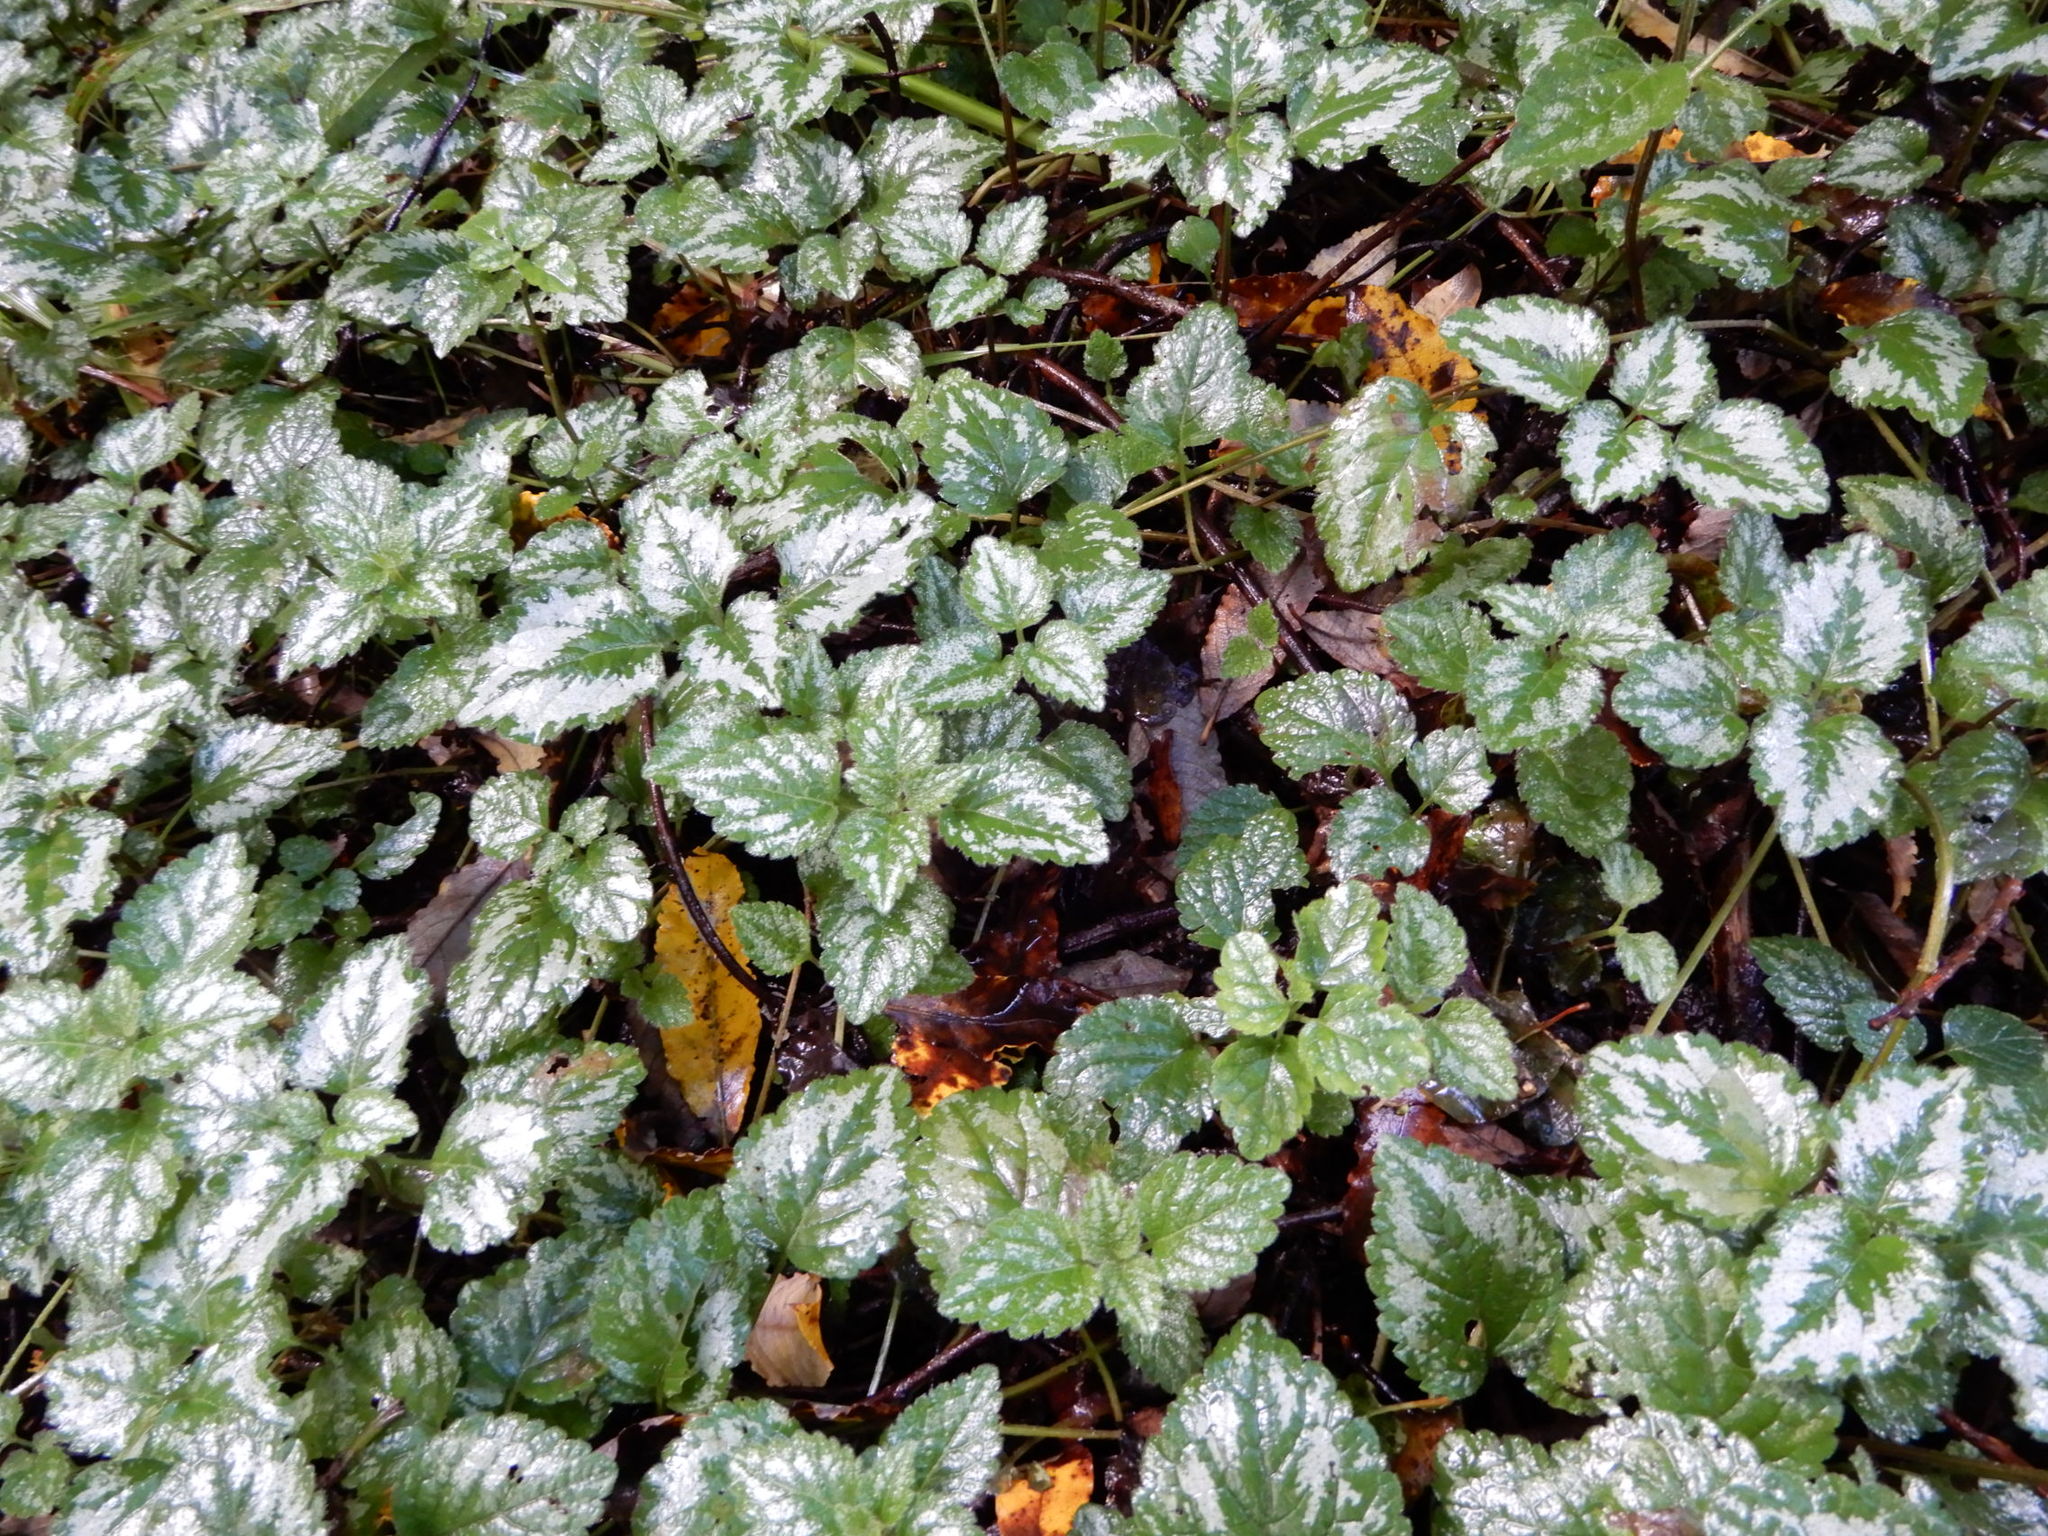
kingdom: Plantae
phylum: Tracheophyta
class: Magnoliopsida
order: Lamiales
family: Lamiaceae
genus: Lamium
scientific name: Lamium galeobdolon
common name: Yellow archangel
